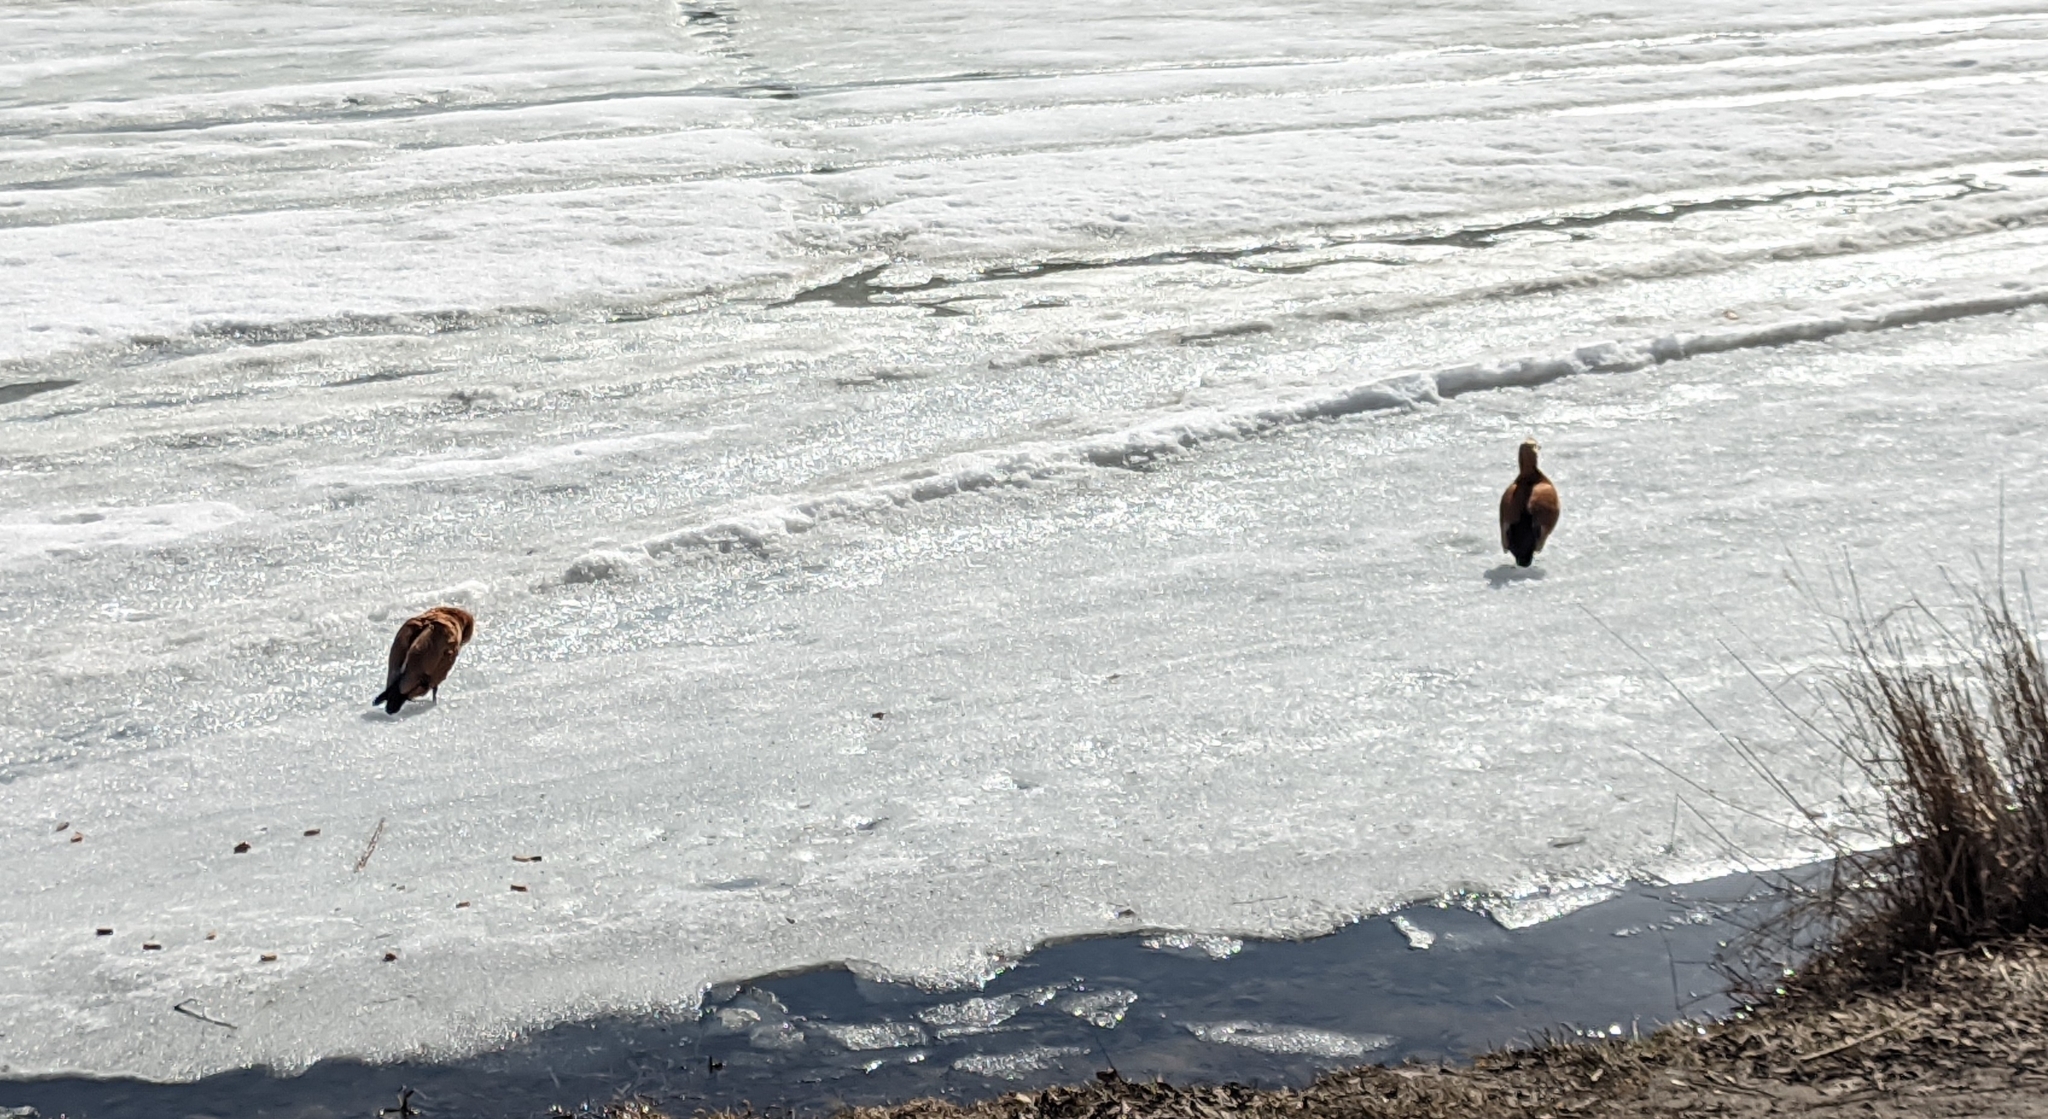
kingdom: Animalia
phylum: Chordata
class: Aves
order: Anseriformes
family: Anatidae
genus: Tadorna
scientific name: Tadorna ferruginea
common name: Ruddy shelduck
